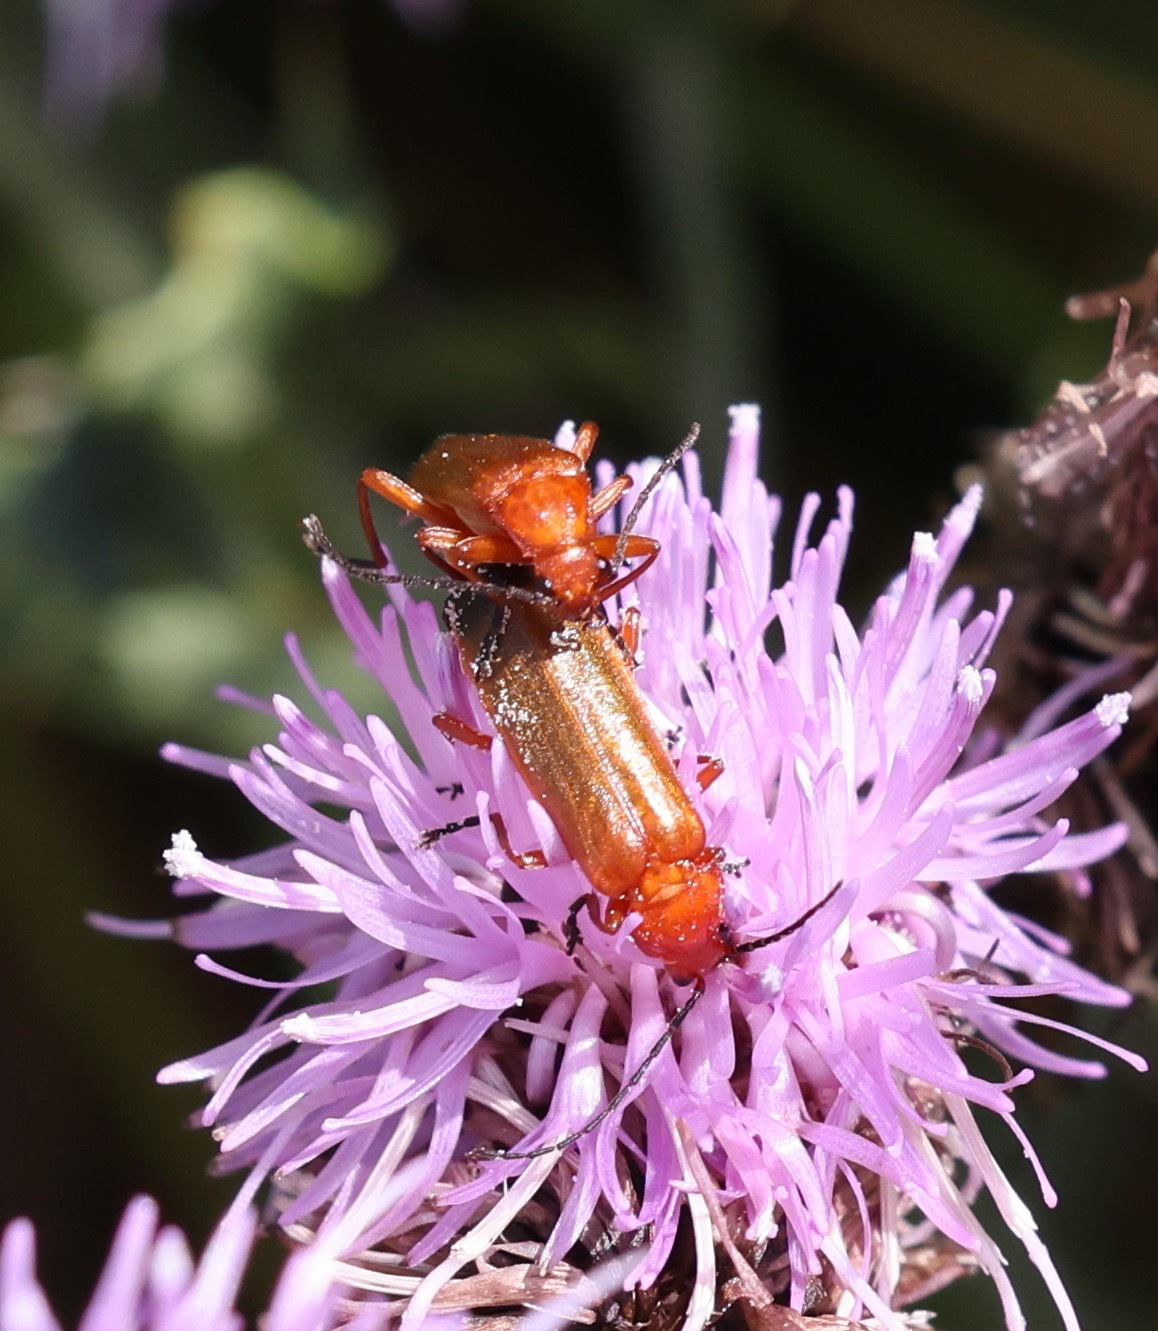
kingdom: Animalia
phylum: Arthropoda
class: Insecta
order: Coleoptera
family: Cantharidae
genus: Rhagonycha
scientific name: Rhagonycha fulva
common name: Common red soldier beetle
